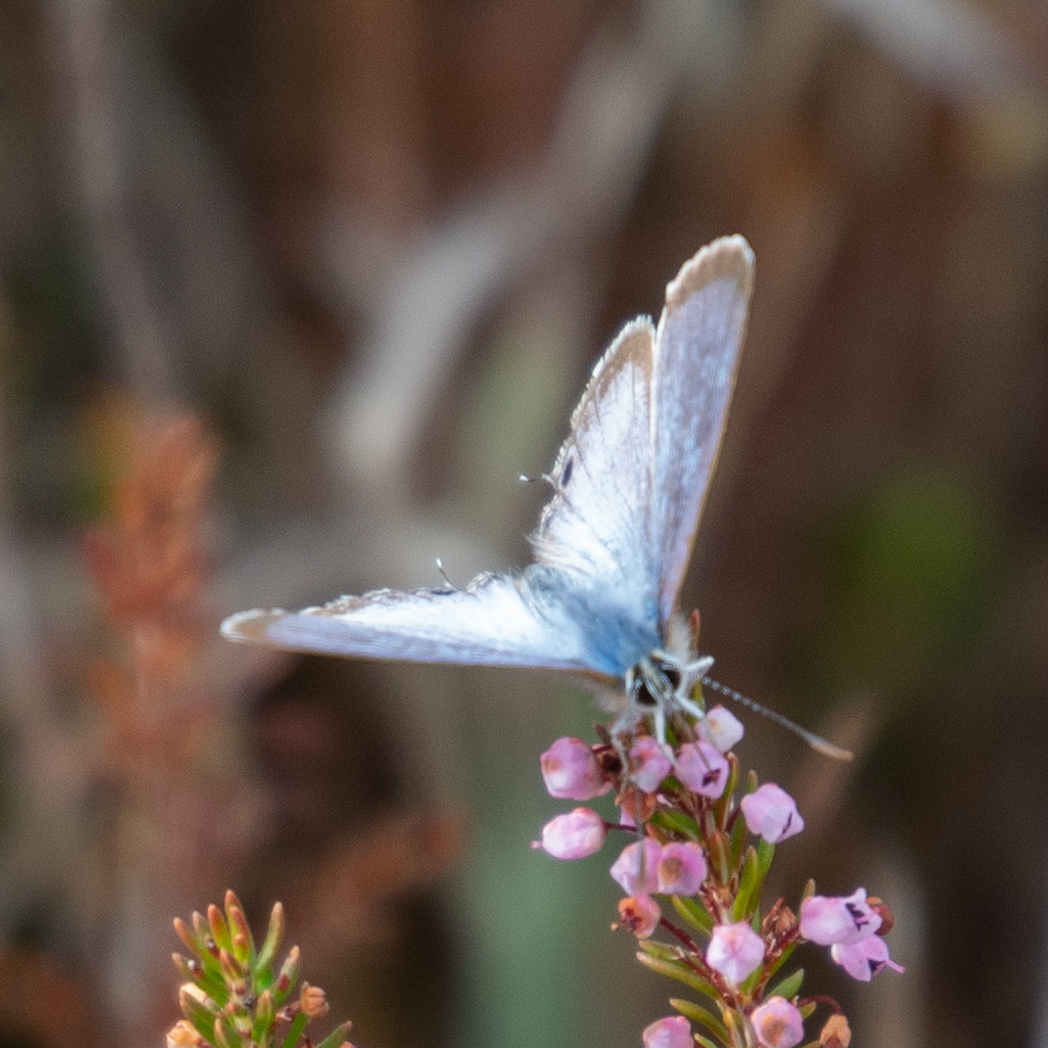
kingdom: Animalia
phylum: Arthropoda
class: Insecta
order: Lepidoptera
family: Lycaenidae
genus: Lampides
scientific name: Lampides boeticus
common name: Long-tailed blue
